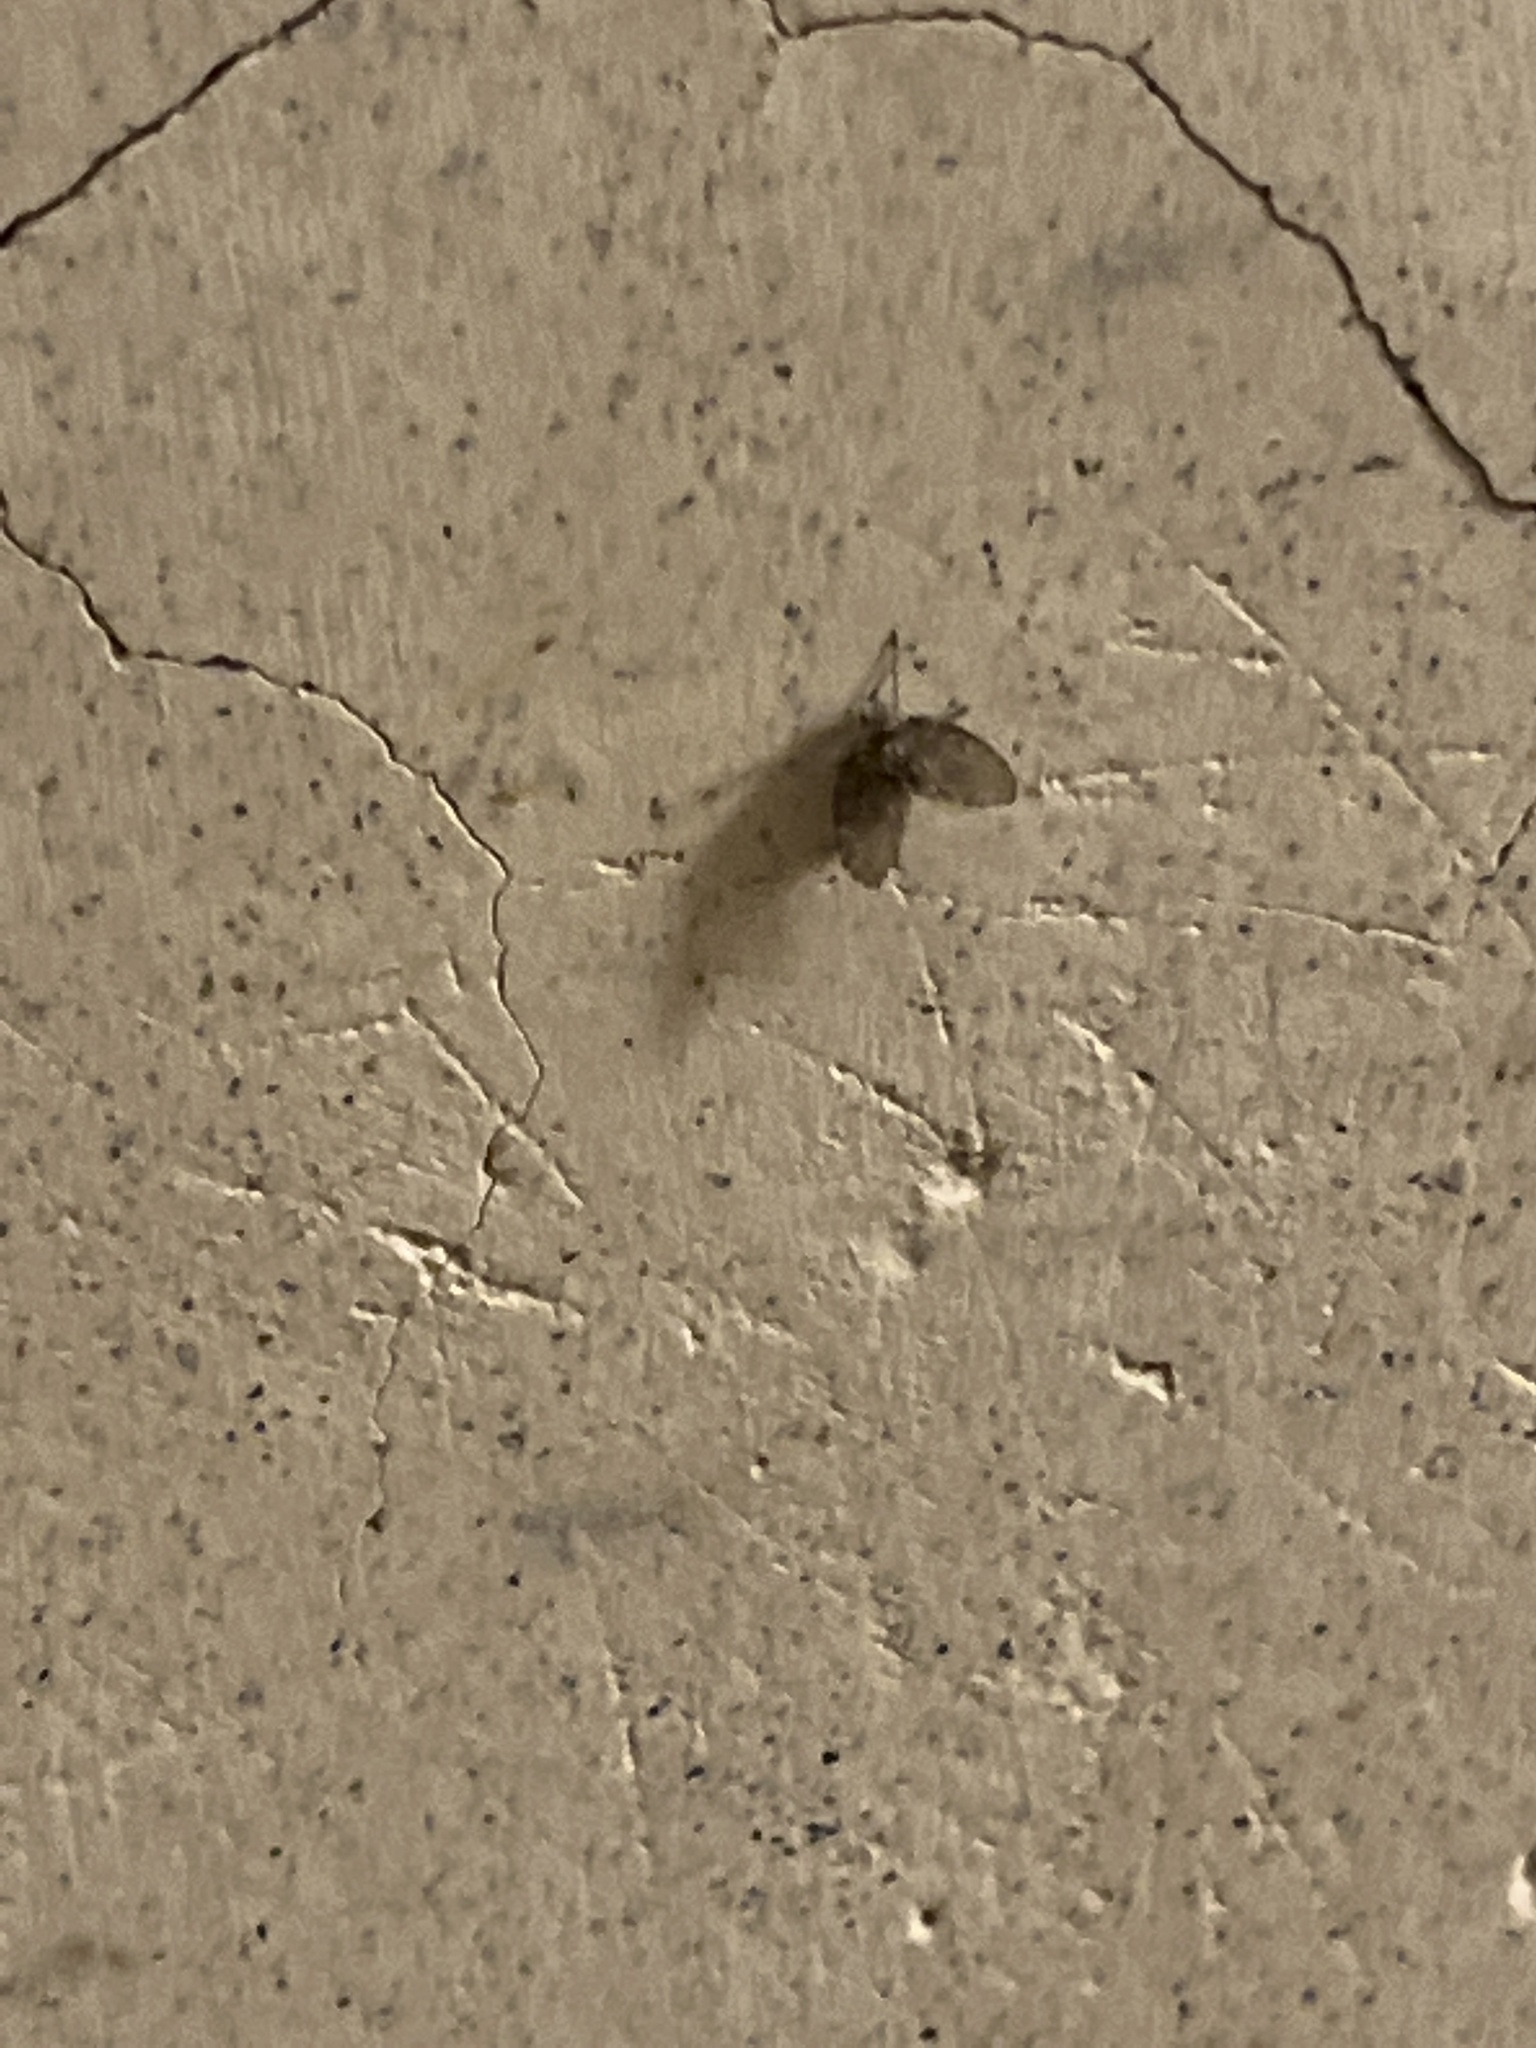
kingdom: Animalia
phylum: Arthropoda
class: Insecta
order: Diptera
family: Psychodidae
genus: Clogmia
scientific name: Clogmia albipunctatus
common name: White-spotted moth fly
